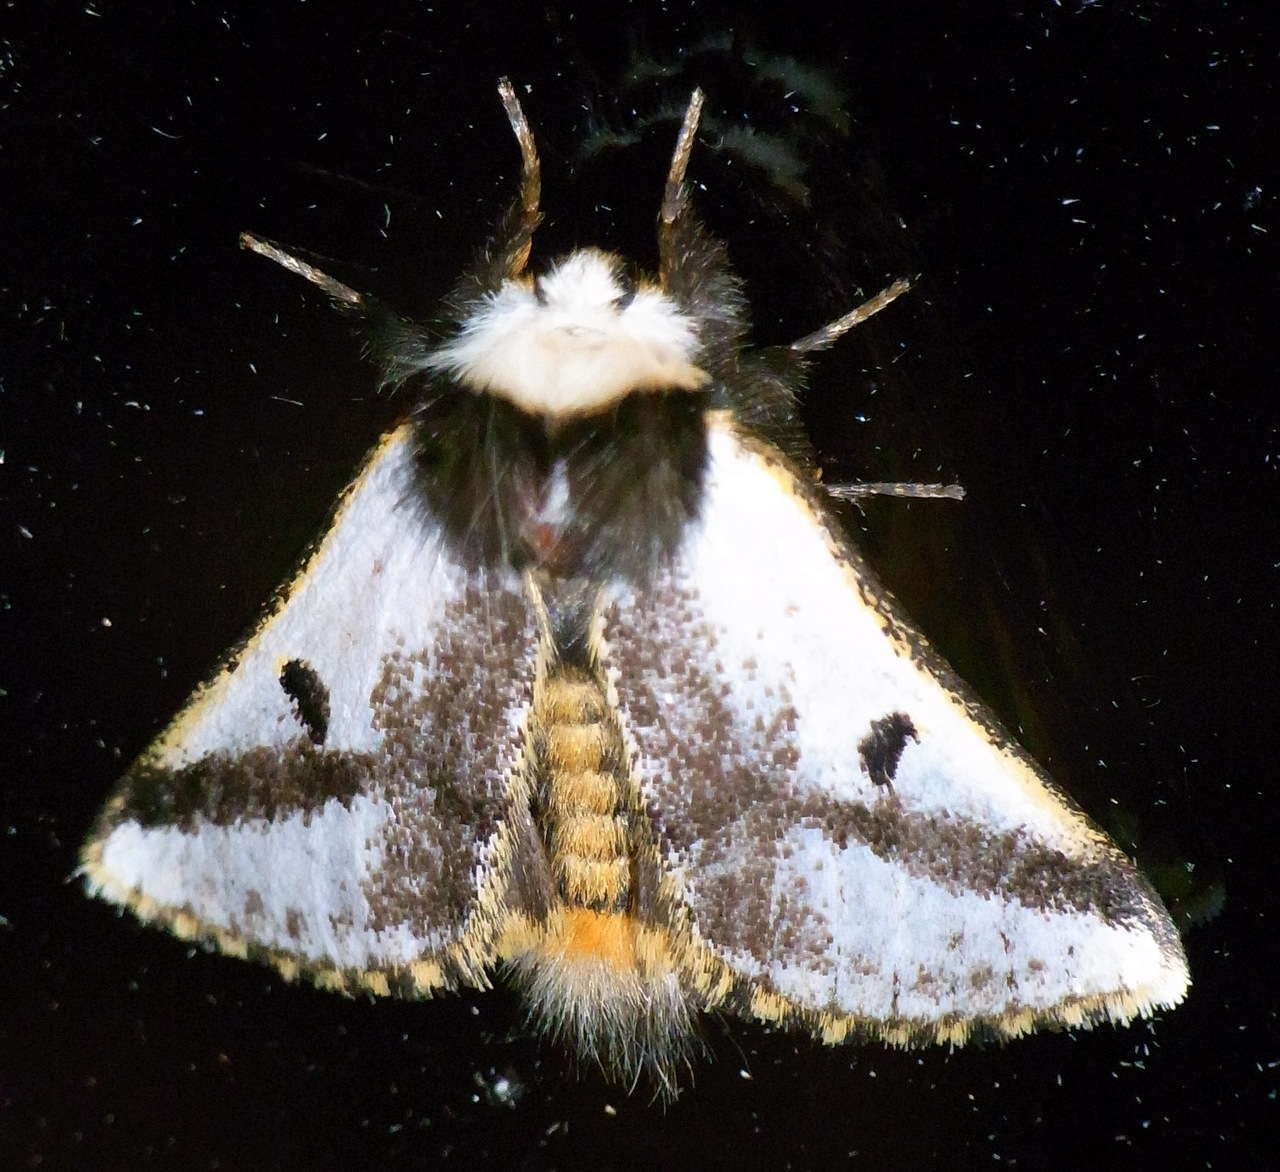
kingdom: Animalia
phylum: Arthropoda
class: Insecta
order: Lepidoptera
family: Notodontidae
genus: Epicoma
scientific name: Epicoma melanospila
